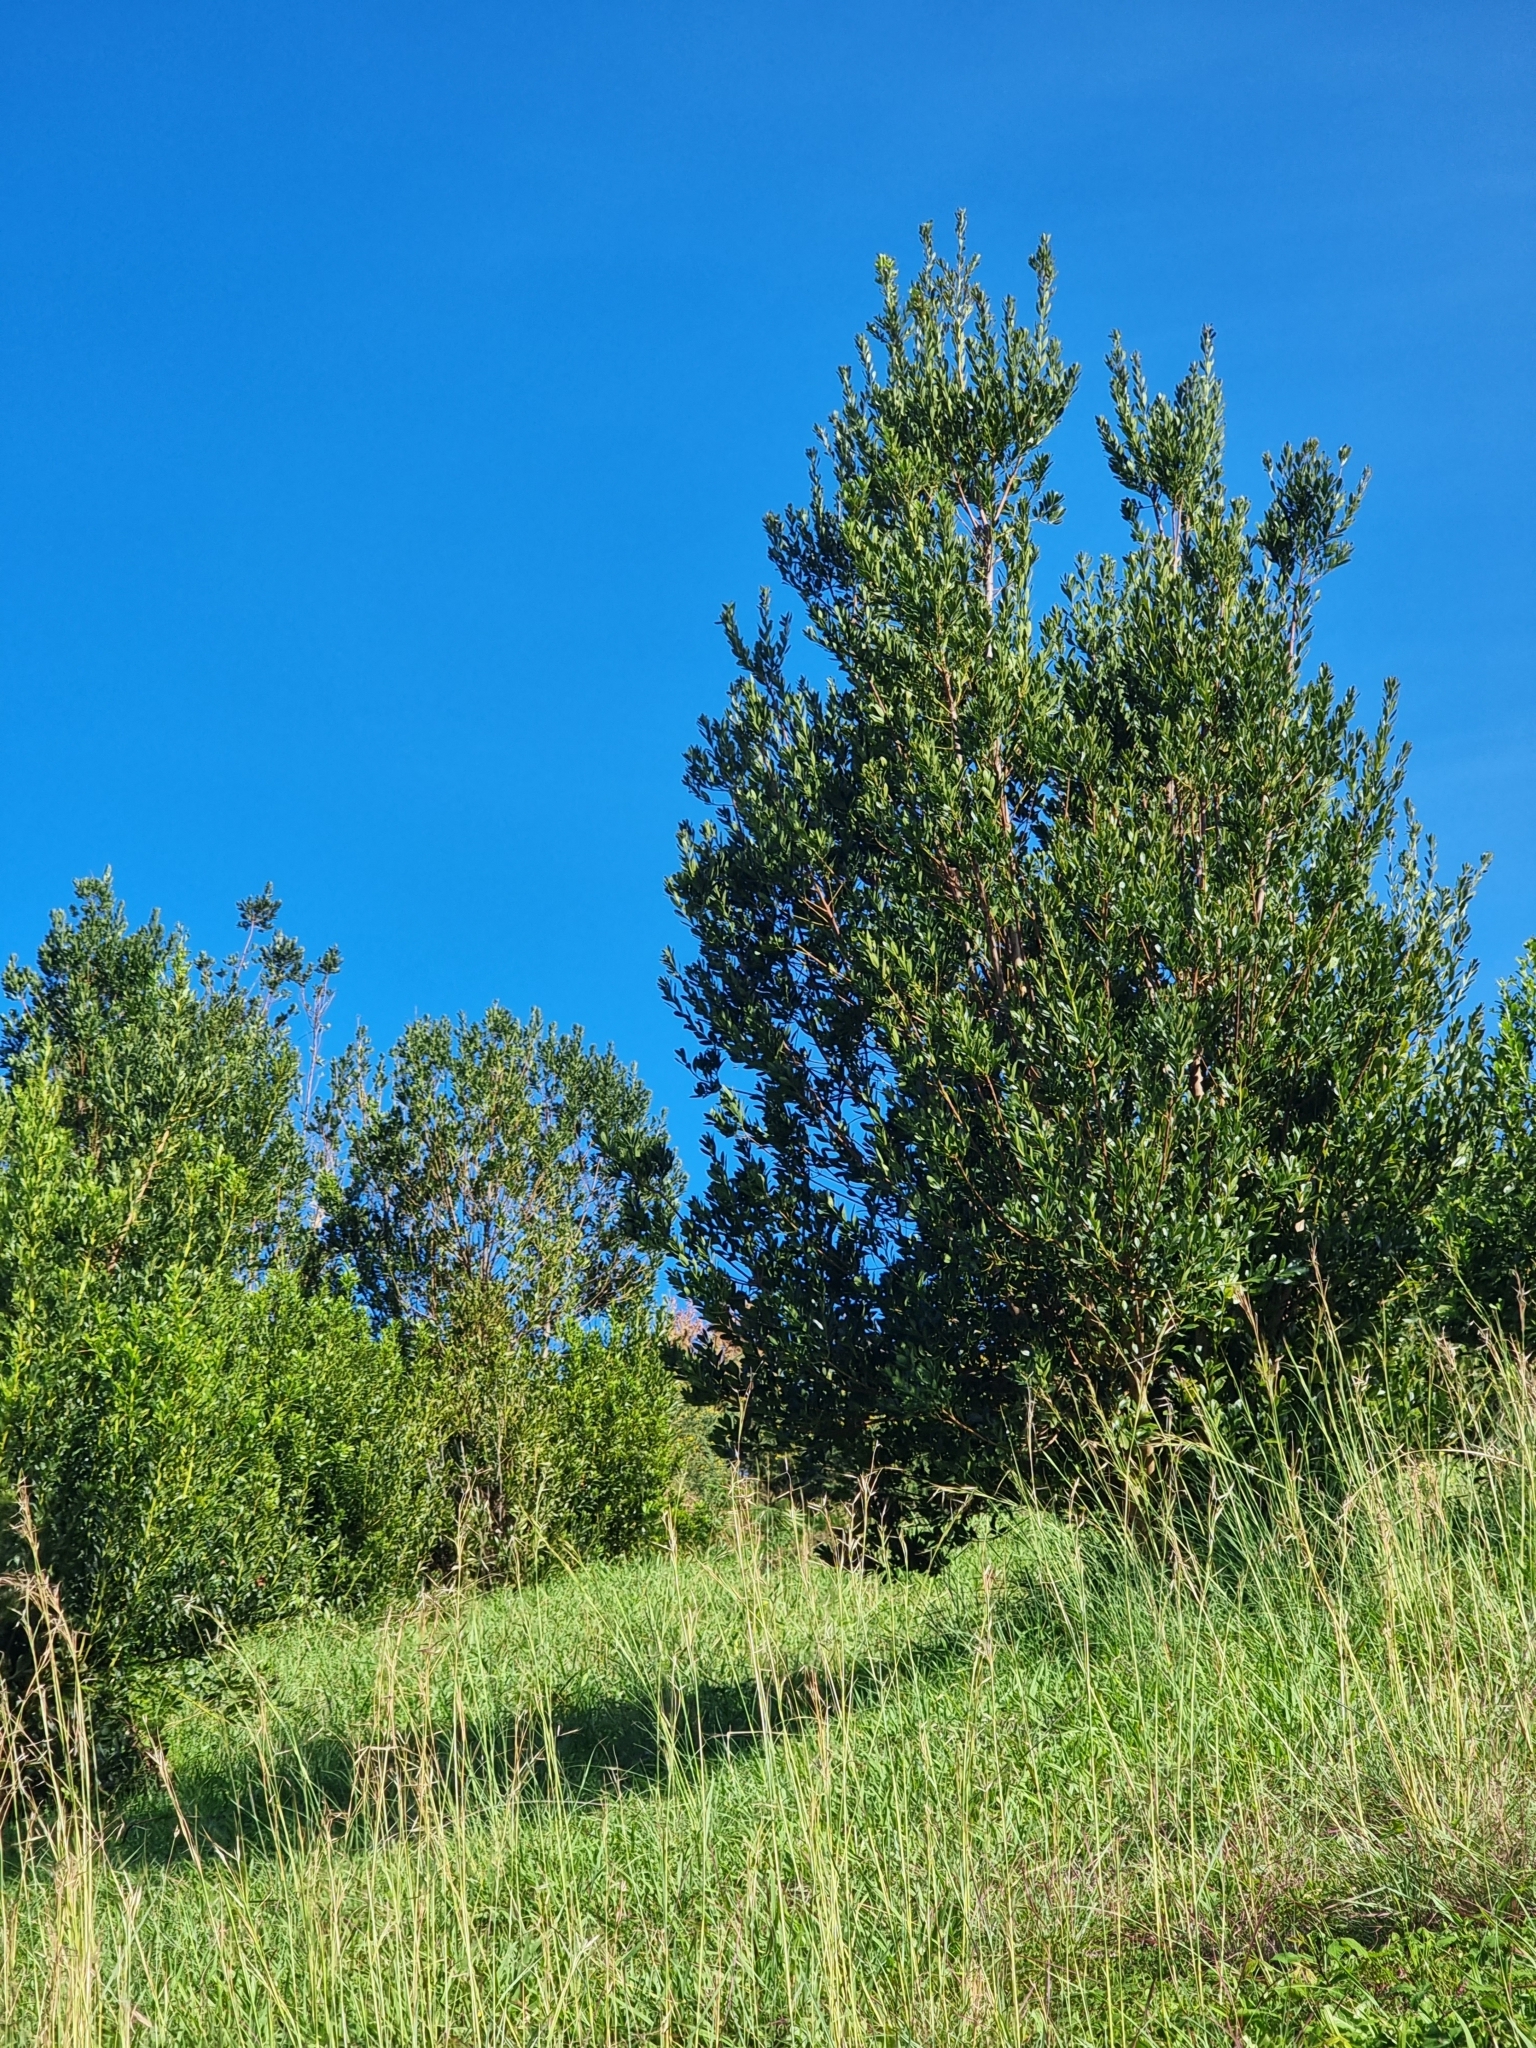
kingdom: Plantae
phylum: Tracheophyta
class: Magnoliopsida
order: Fagales
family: Myricaceae
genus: Morella
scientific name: Morella faya
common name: Firetree
